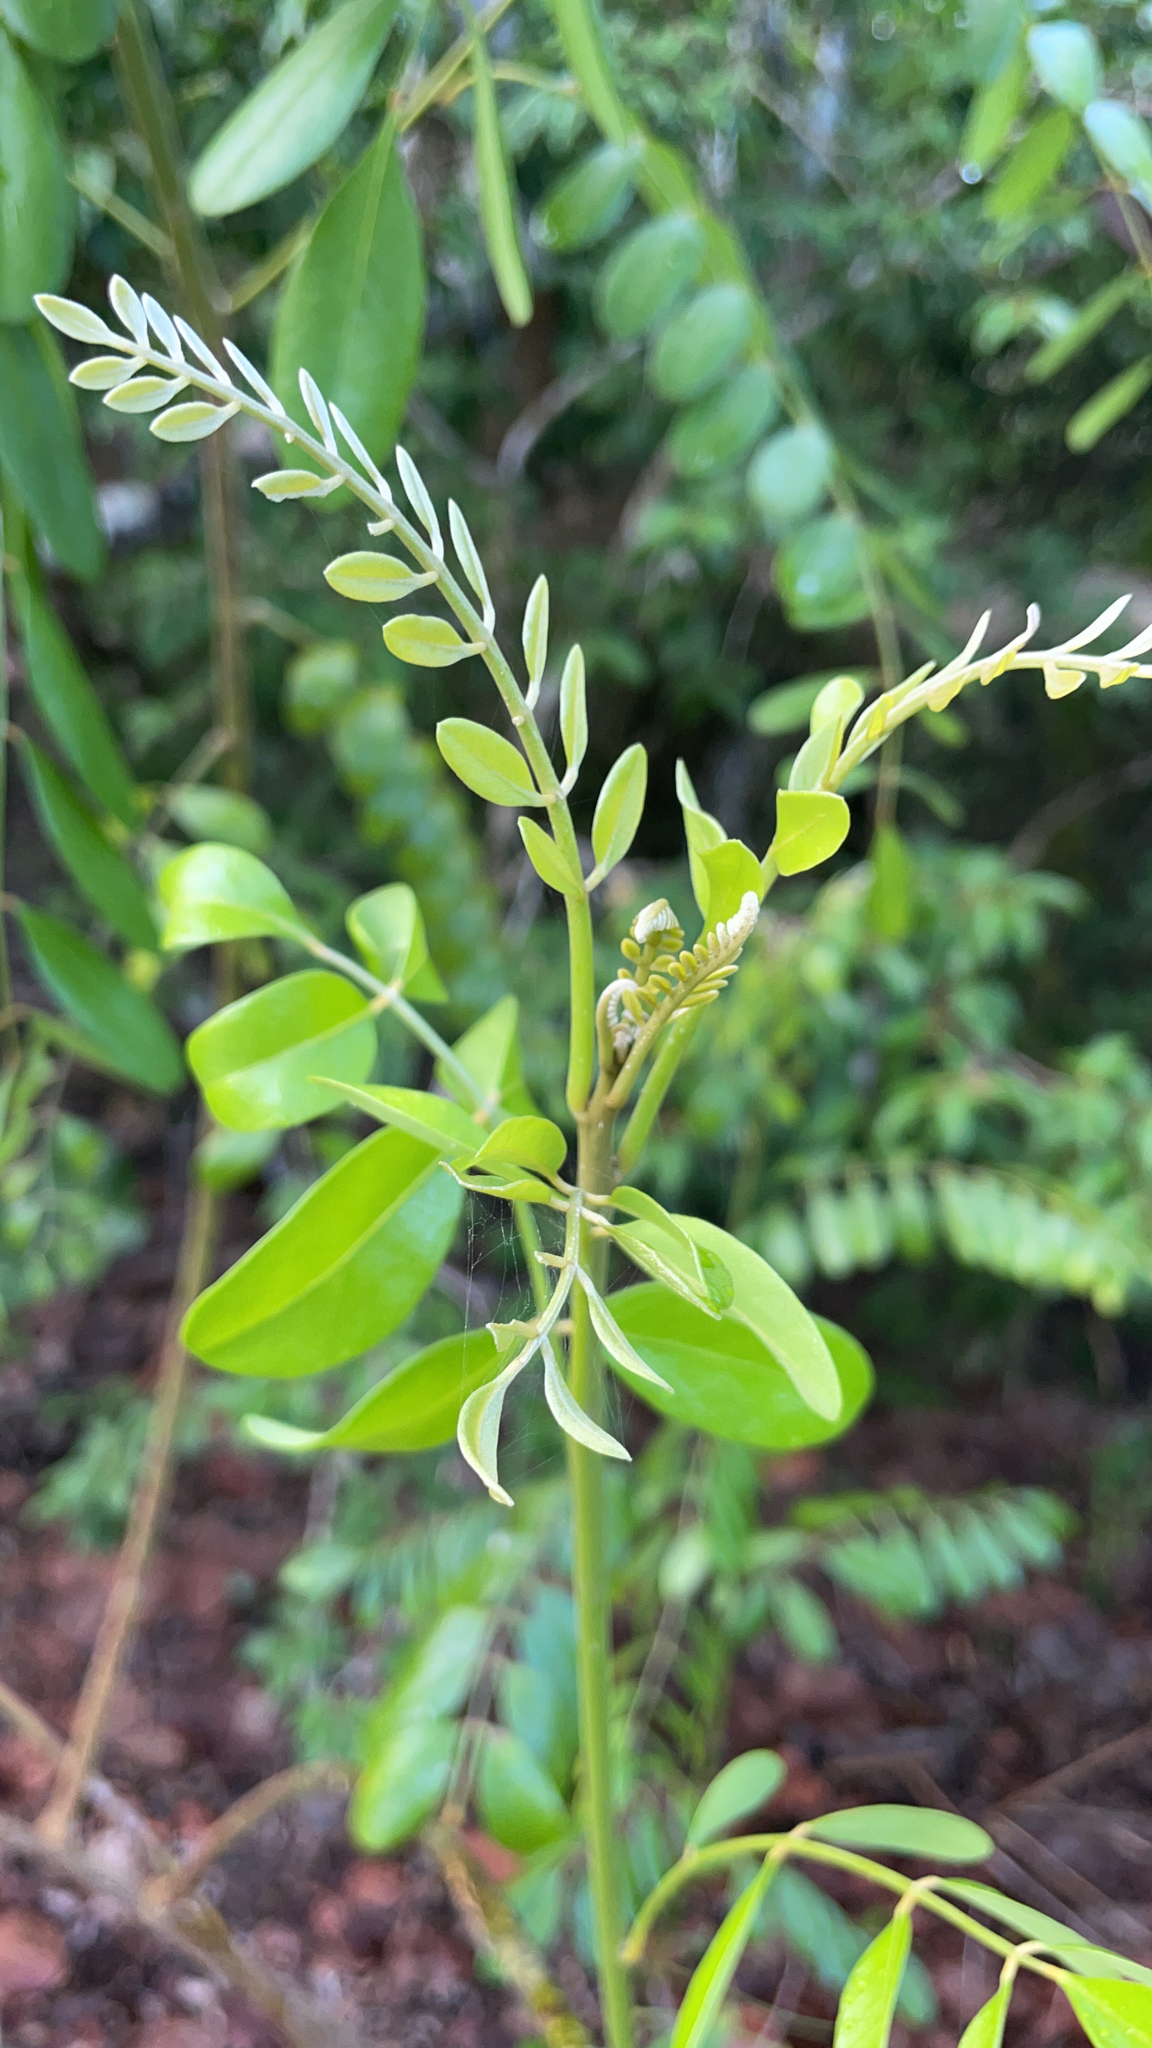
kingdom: Plantae
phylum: Tracheophyta
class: Magnoliopsida
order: Fabales
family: Fabaceae
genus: Sophora
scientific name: Sophora tomentosa
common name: Yellow necklacepod
